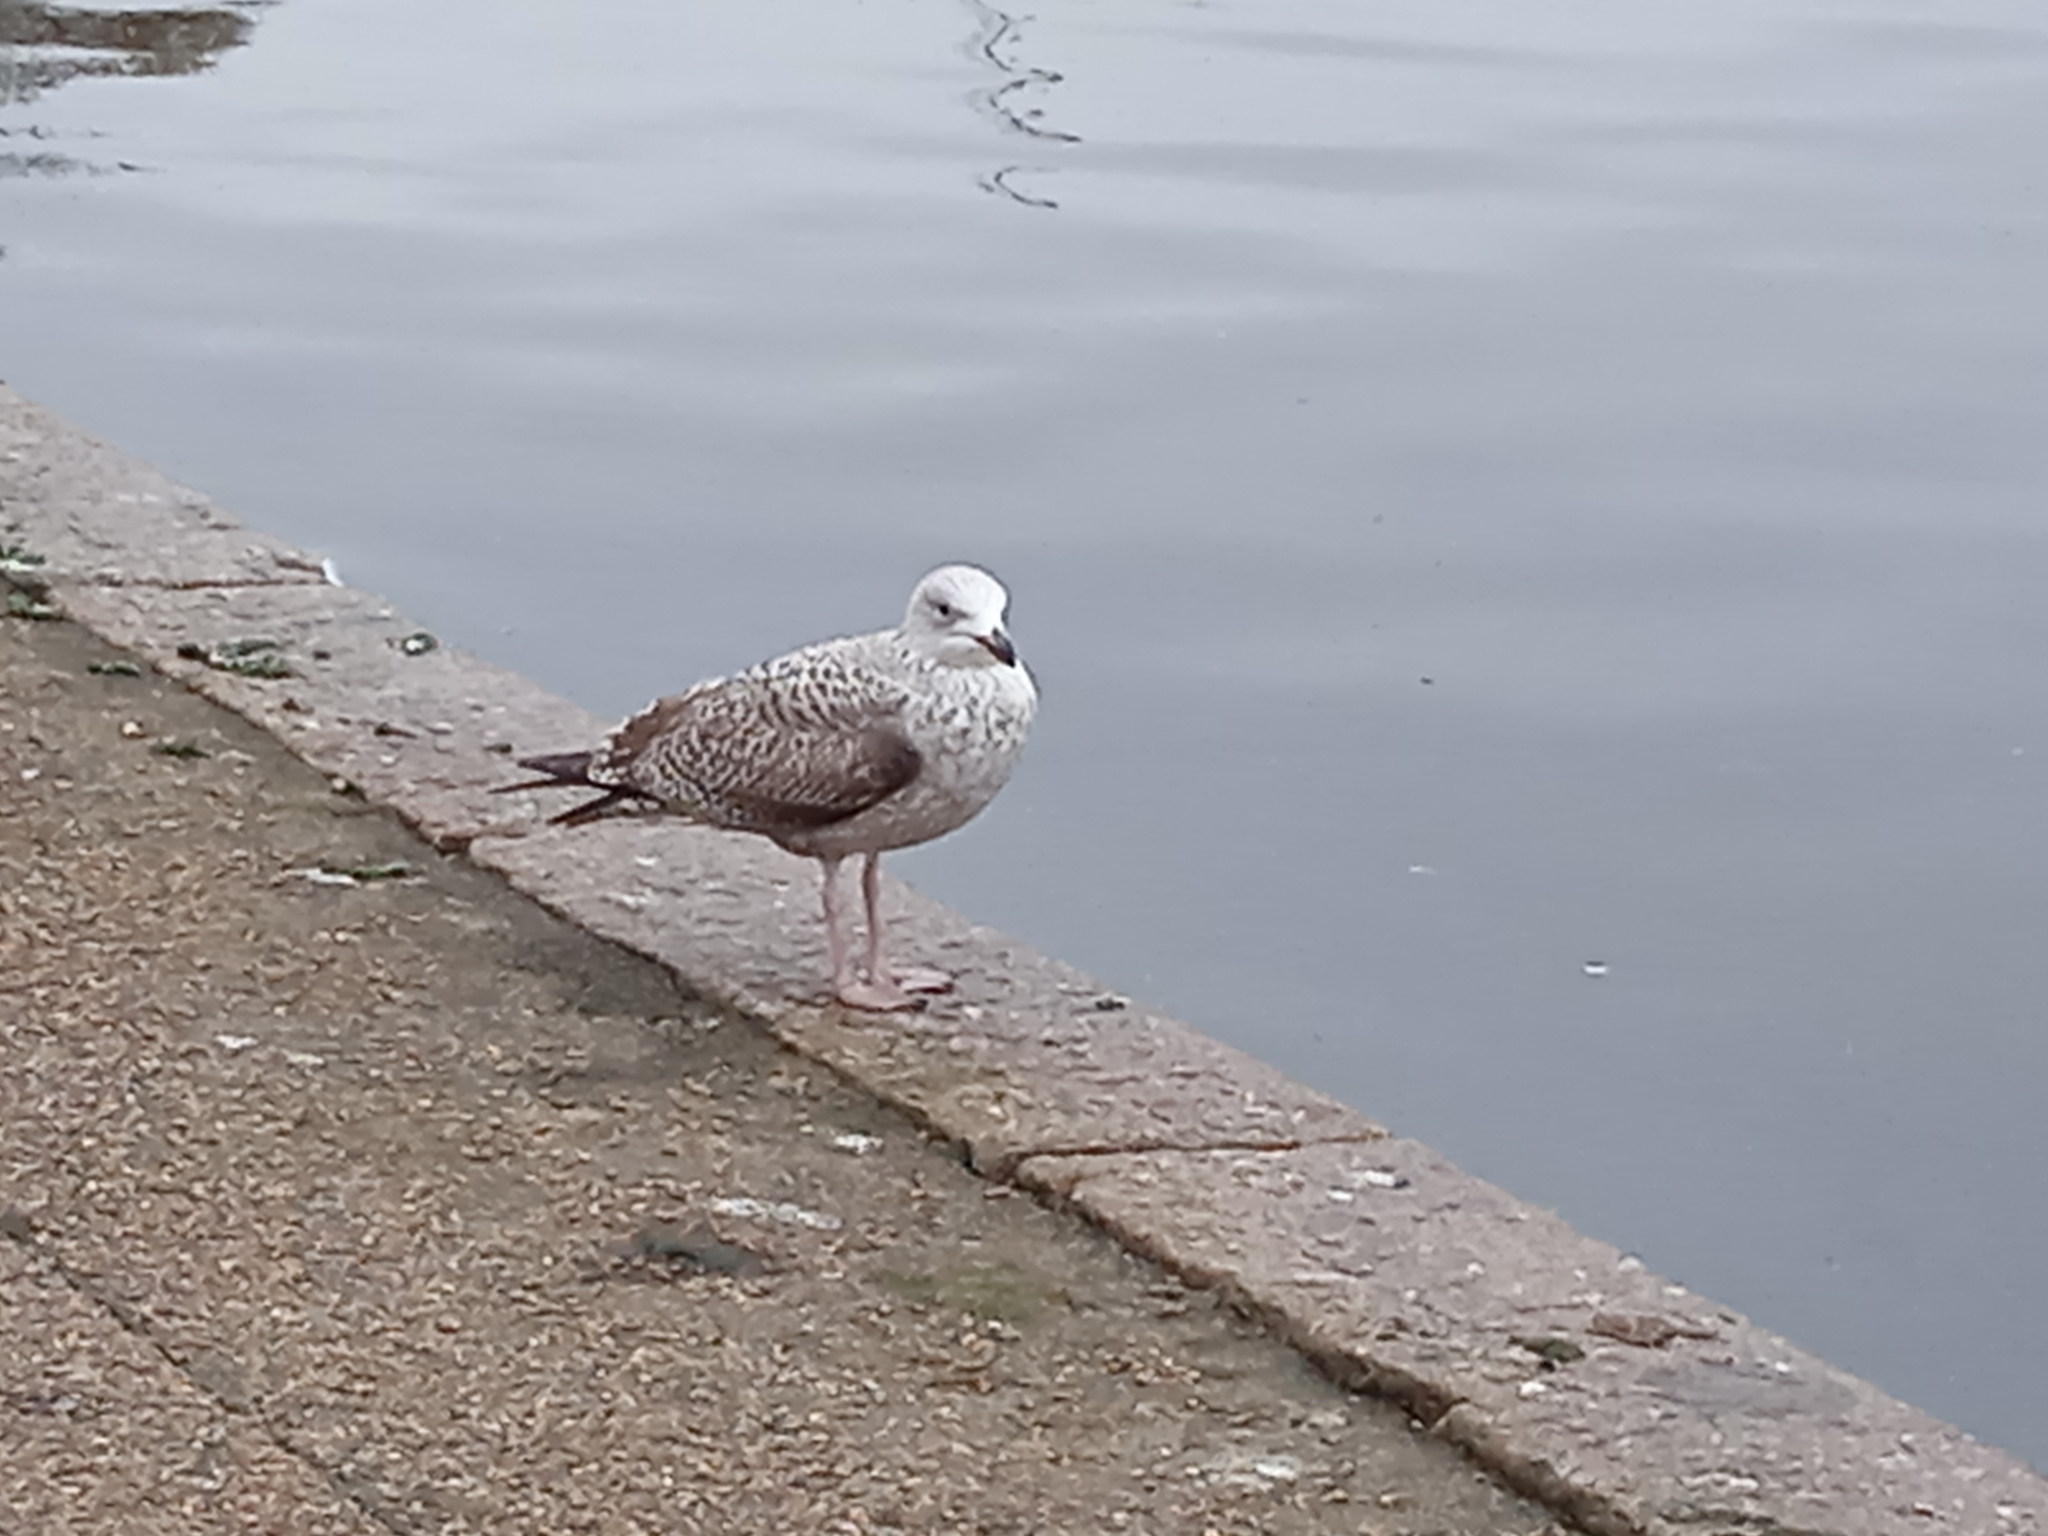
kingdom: Animalia
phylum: Chordata
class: Aves
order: Charadriiformes
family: Laridae
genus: Larus
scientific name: Larus argentatus
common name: Herring gull
